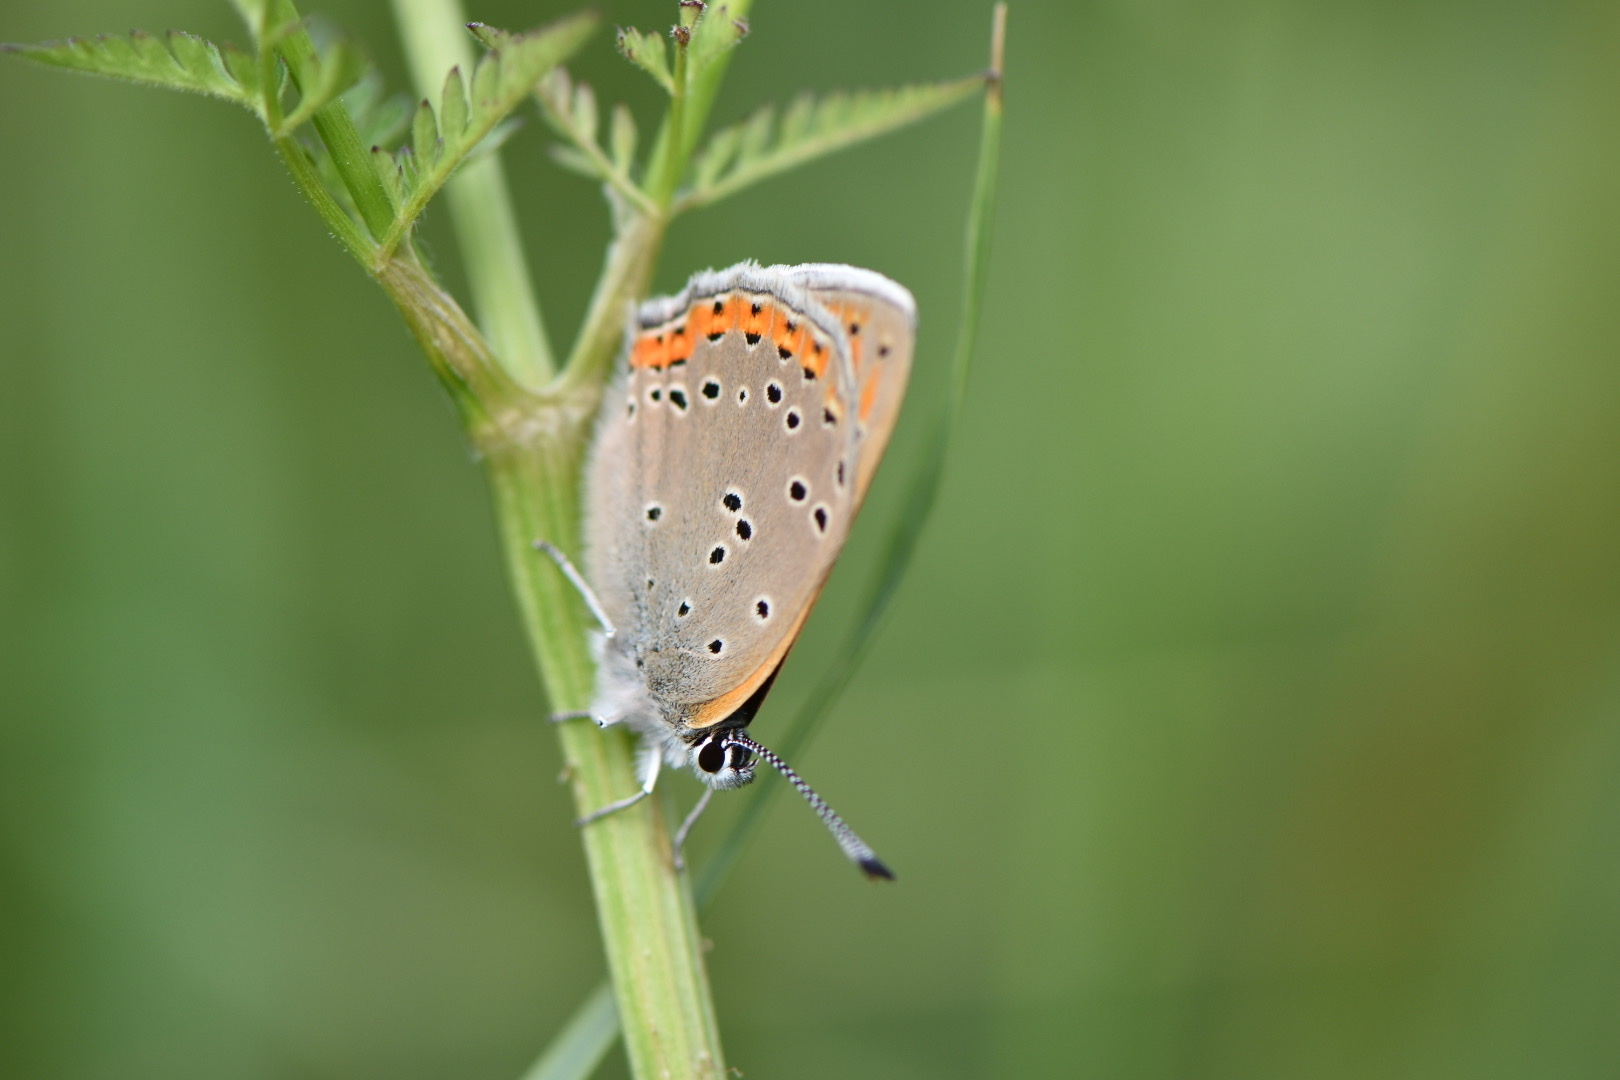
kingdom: Animalia
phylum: Arthropoda
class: Insecta
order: Lepidoptera
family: Lycaenidae
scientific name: Lycaenidae
